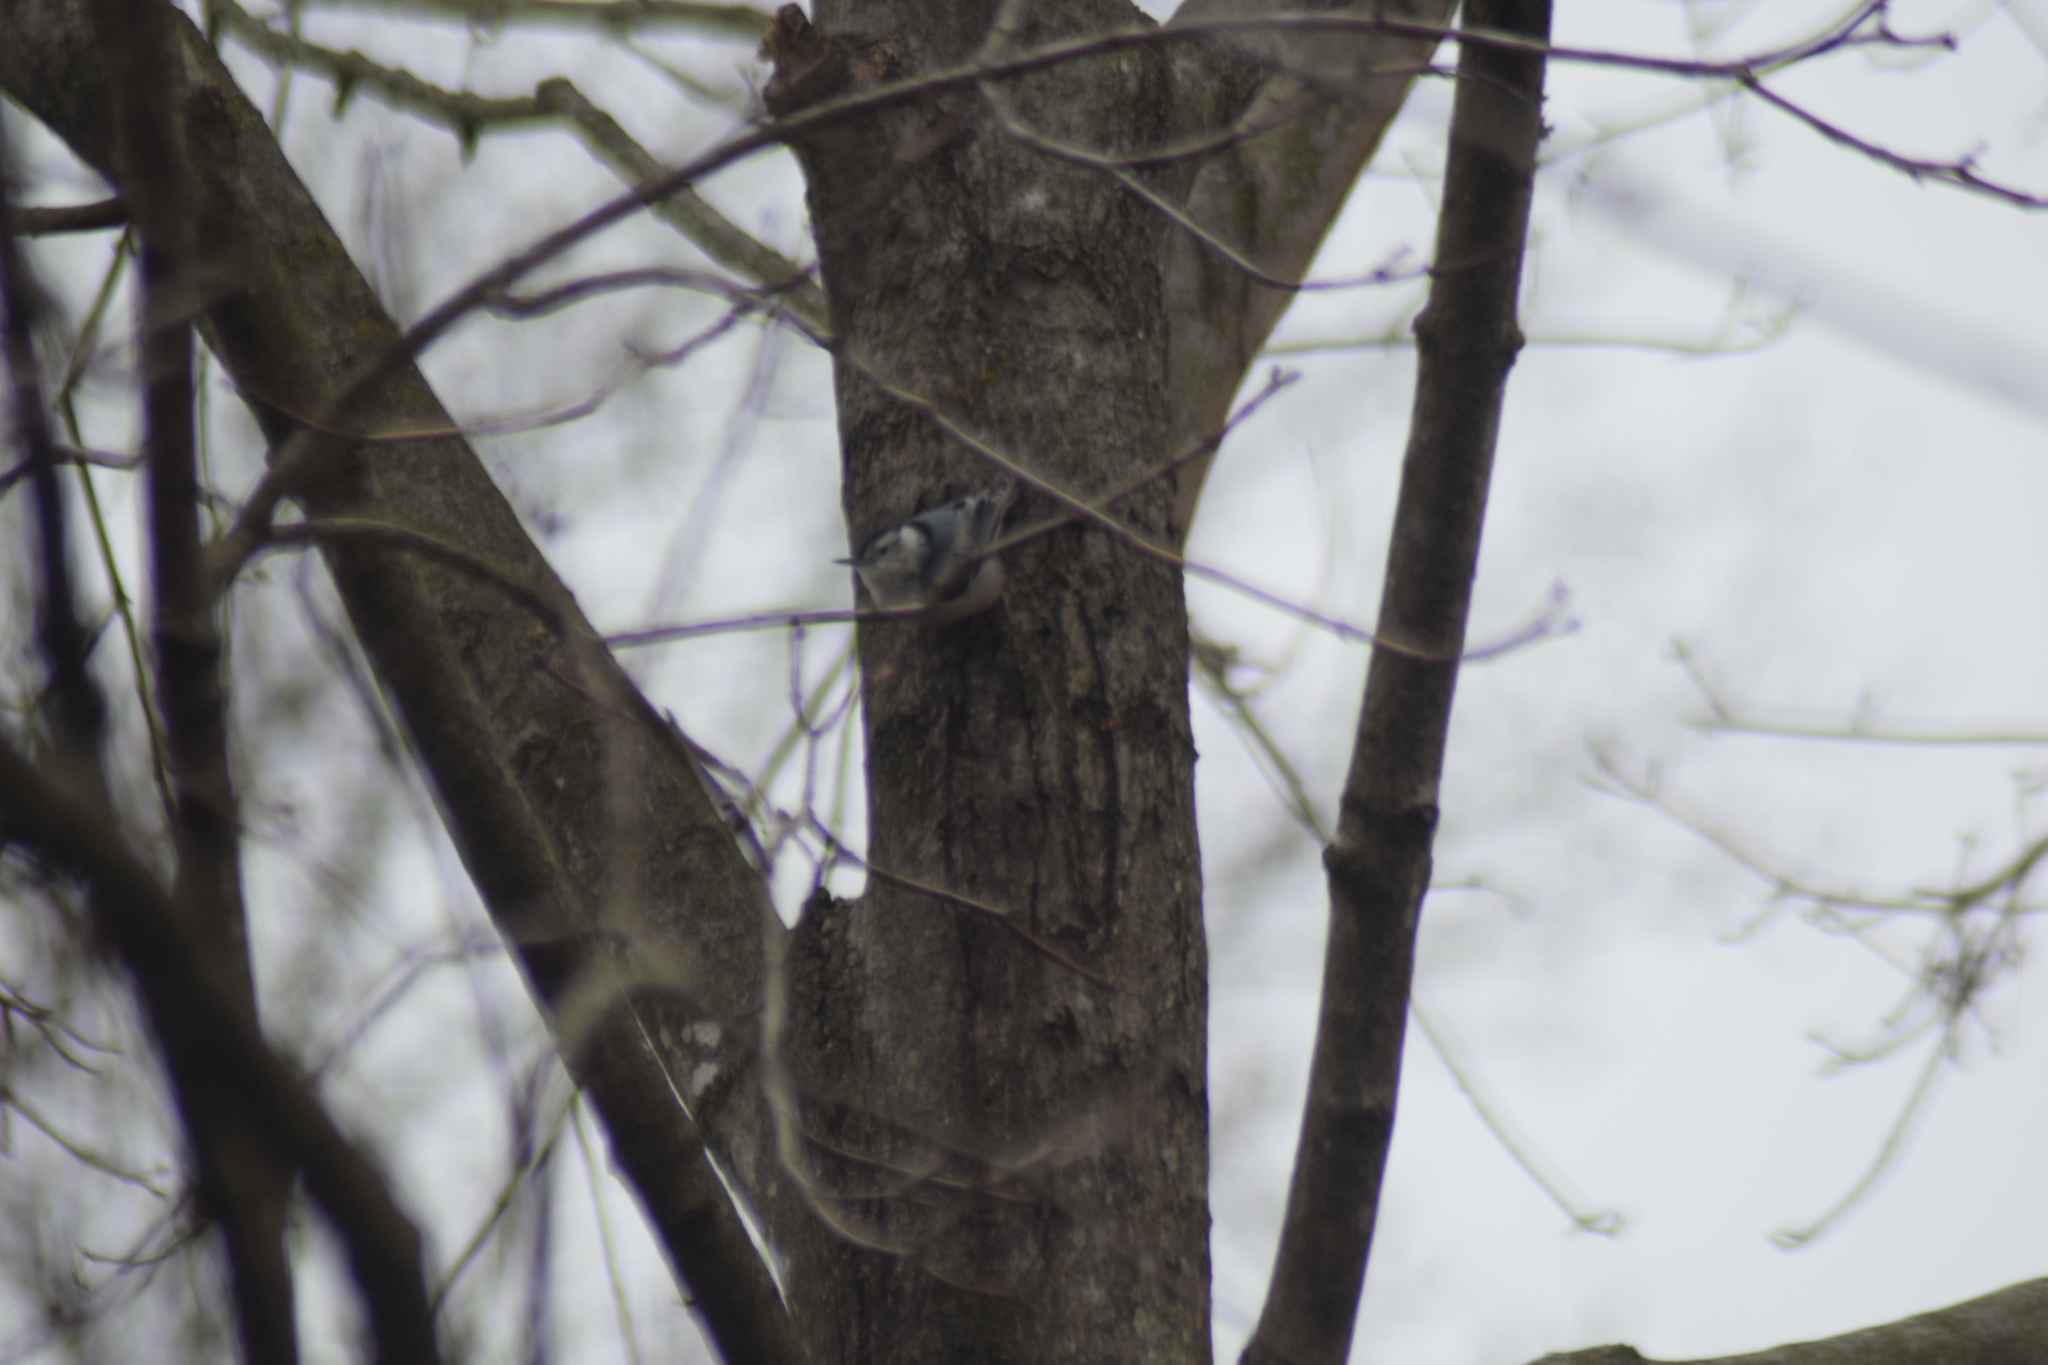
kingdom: Animalia
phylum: Chordata
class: Aves
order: Passeriformes
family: Sittidae
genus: Sitta
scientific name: Sitta carolinensis
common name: White-breasted nuthatch
